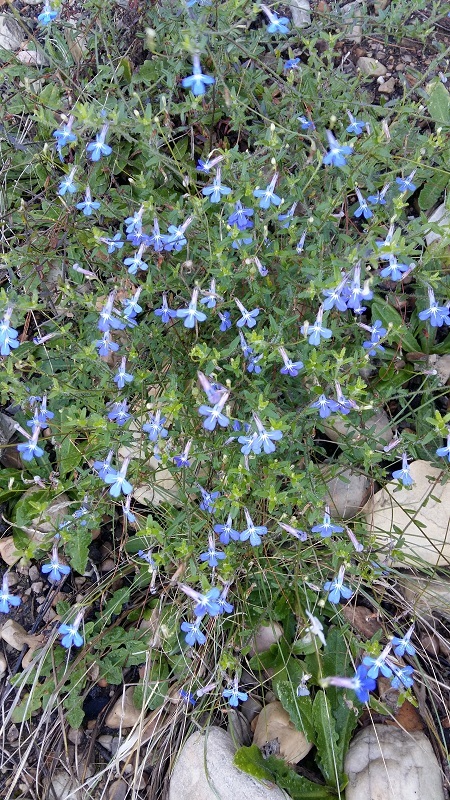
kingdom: Plantae
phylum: Tracheophyta
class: Magnoliopsida
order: Asterales
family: Campanulaceae
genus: Lobelia
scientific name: Lobelia neglecta
